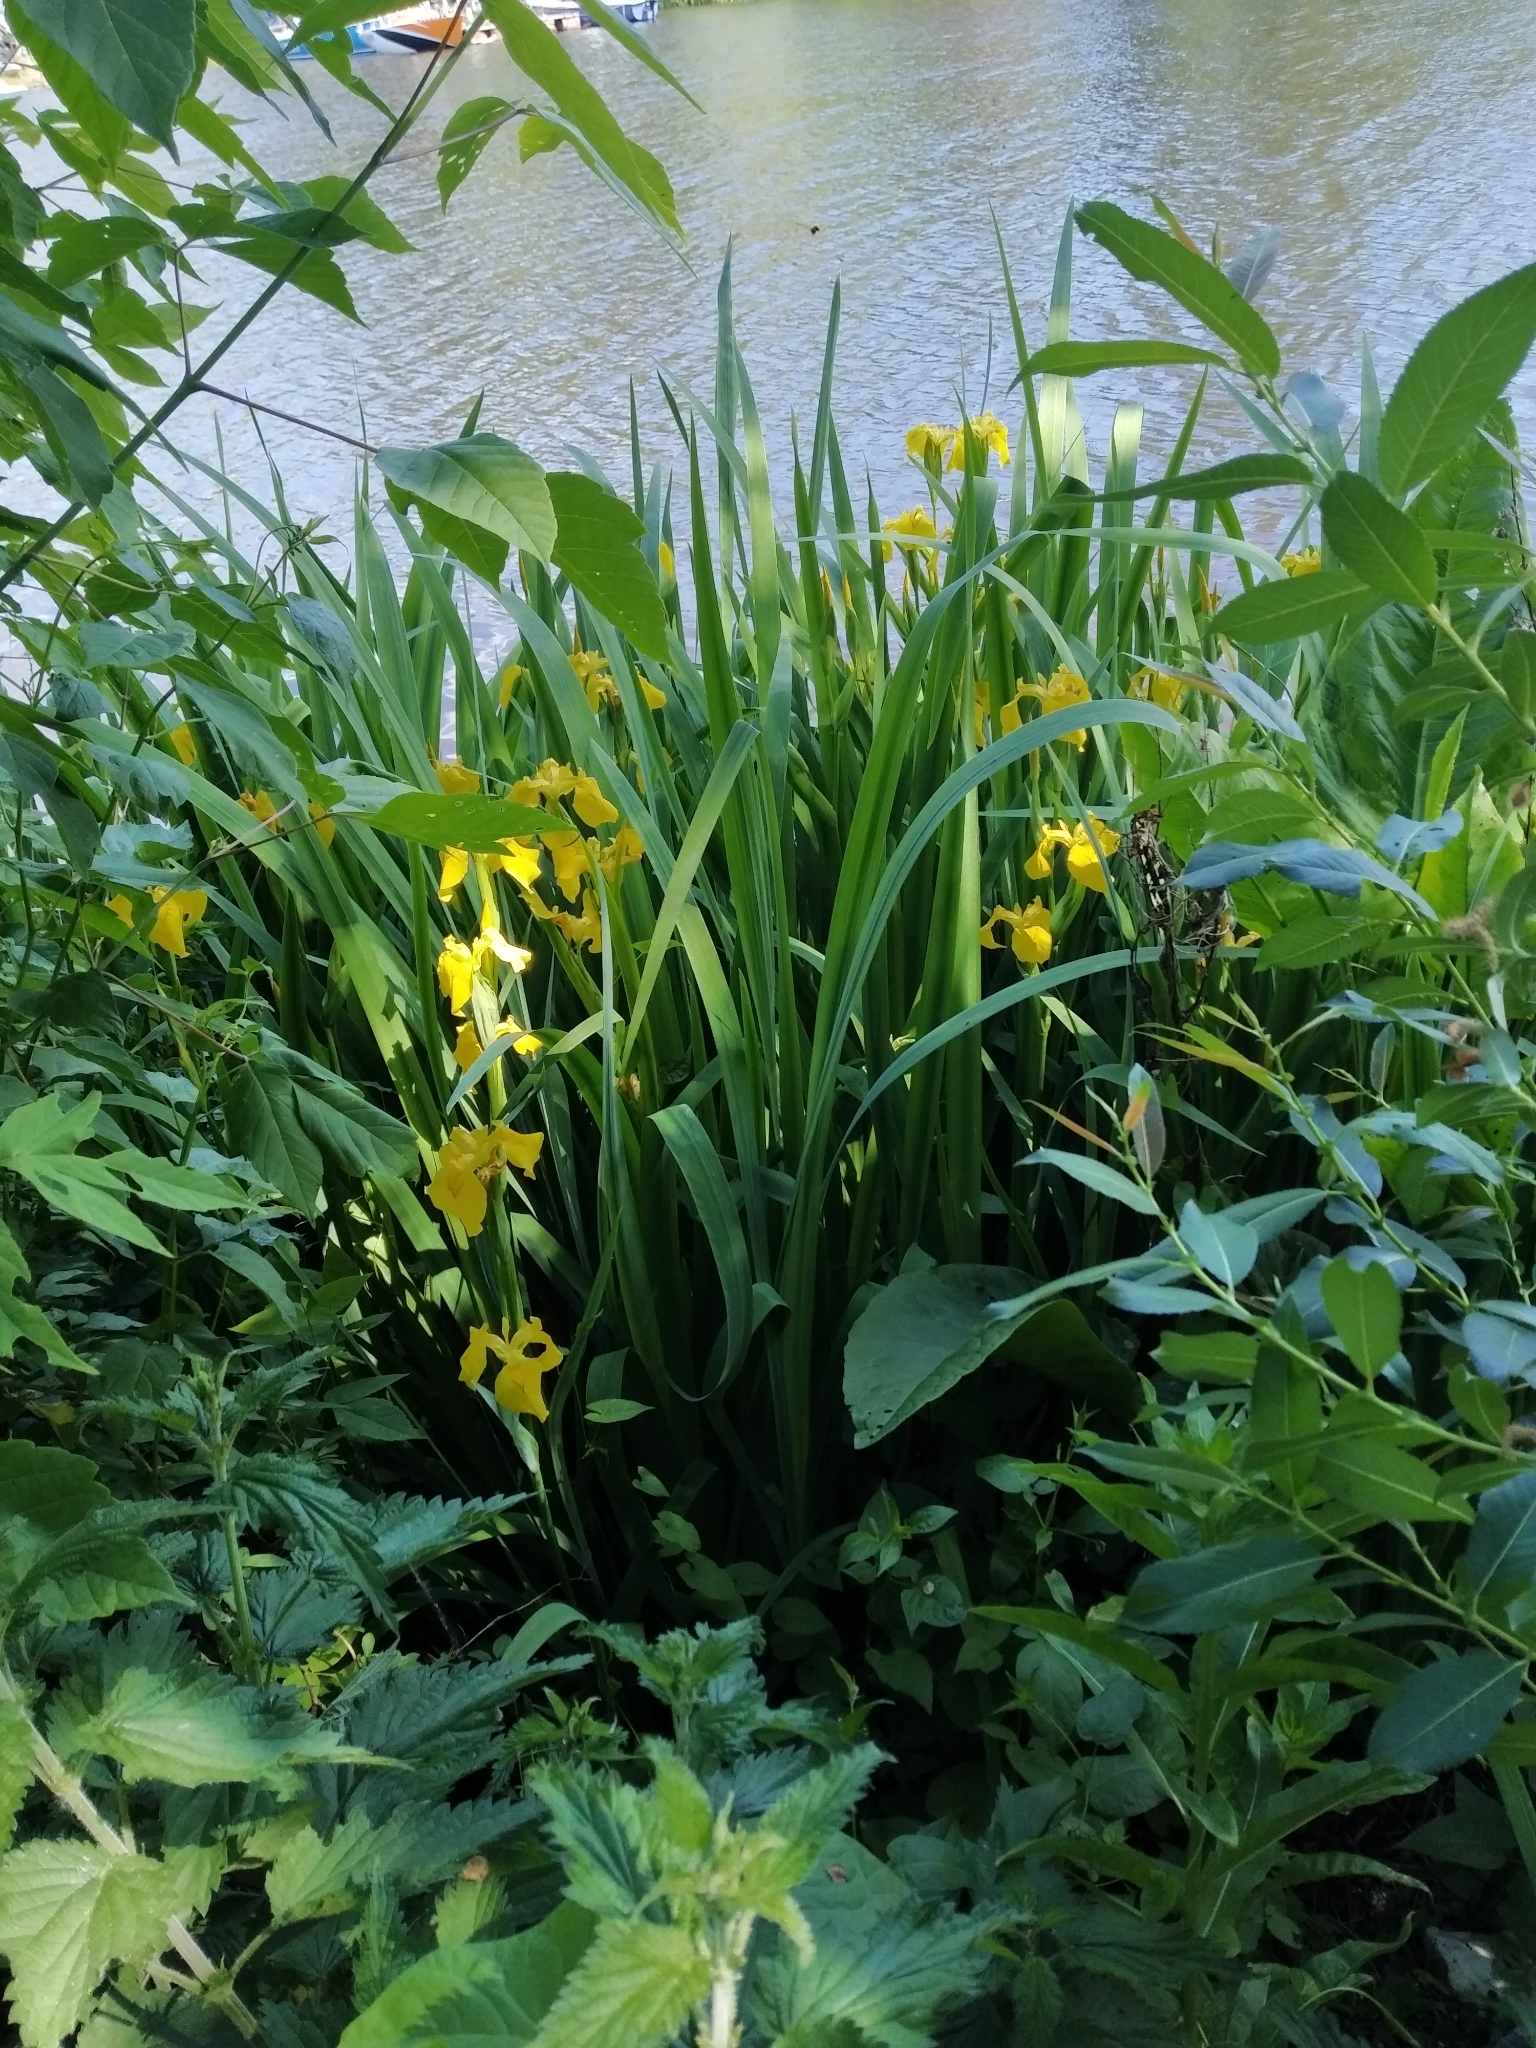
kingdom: Plantae
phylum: Tracheophyta
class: Liliopsida
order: Asparagales
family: Iridaceae
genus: Iris
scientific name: Iris pseudacorus
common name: Yellow flag
